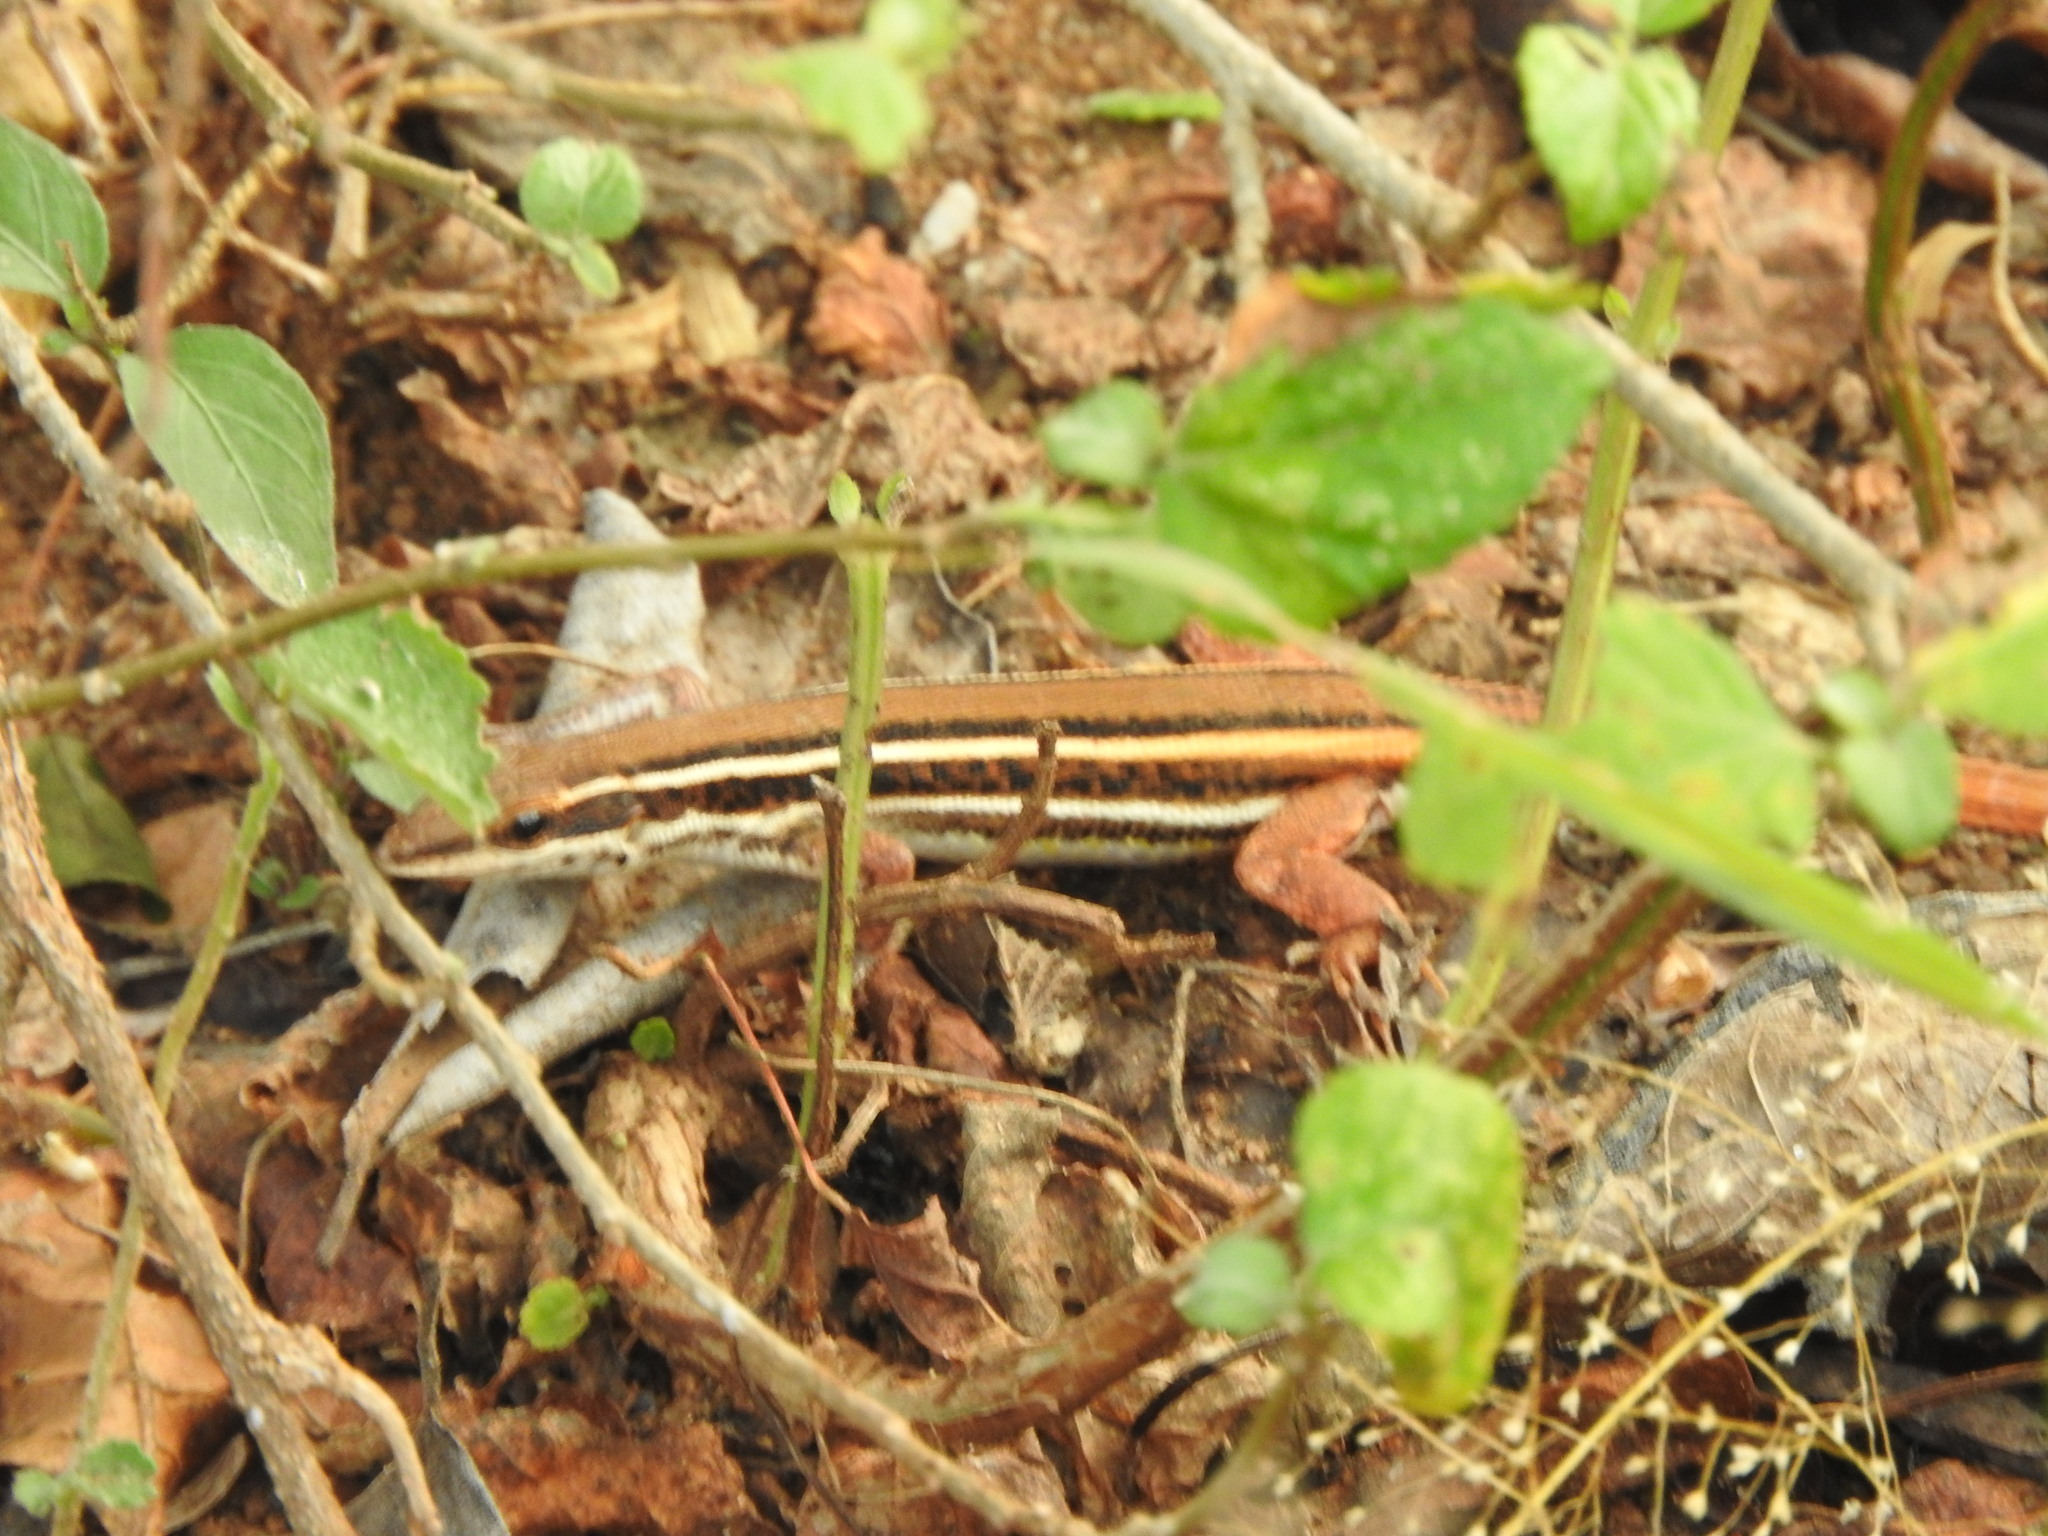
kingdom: Animalia
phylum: Chordata
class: Squamata
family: Lacertidae
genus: Ophisops
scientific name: Ophisops leschenaultii
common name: Leschenault's cabrita
